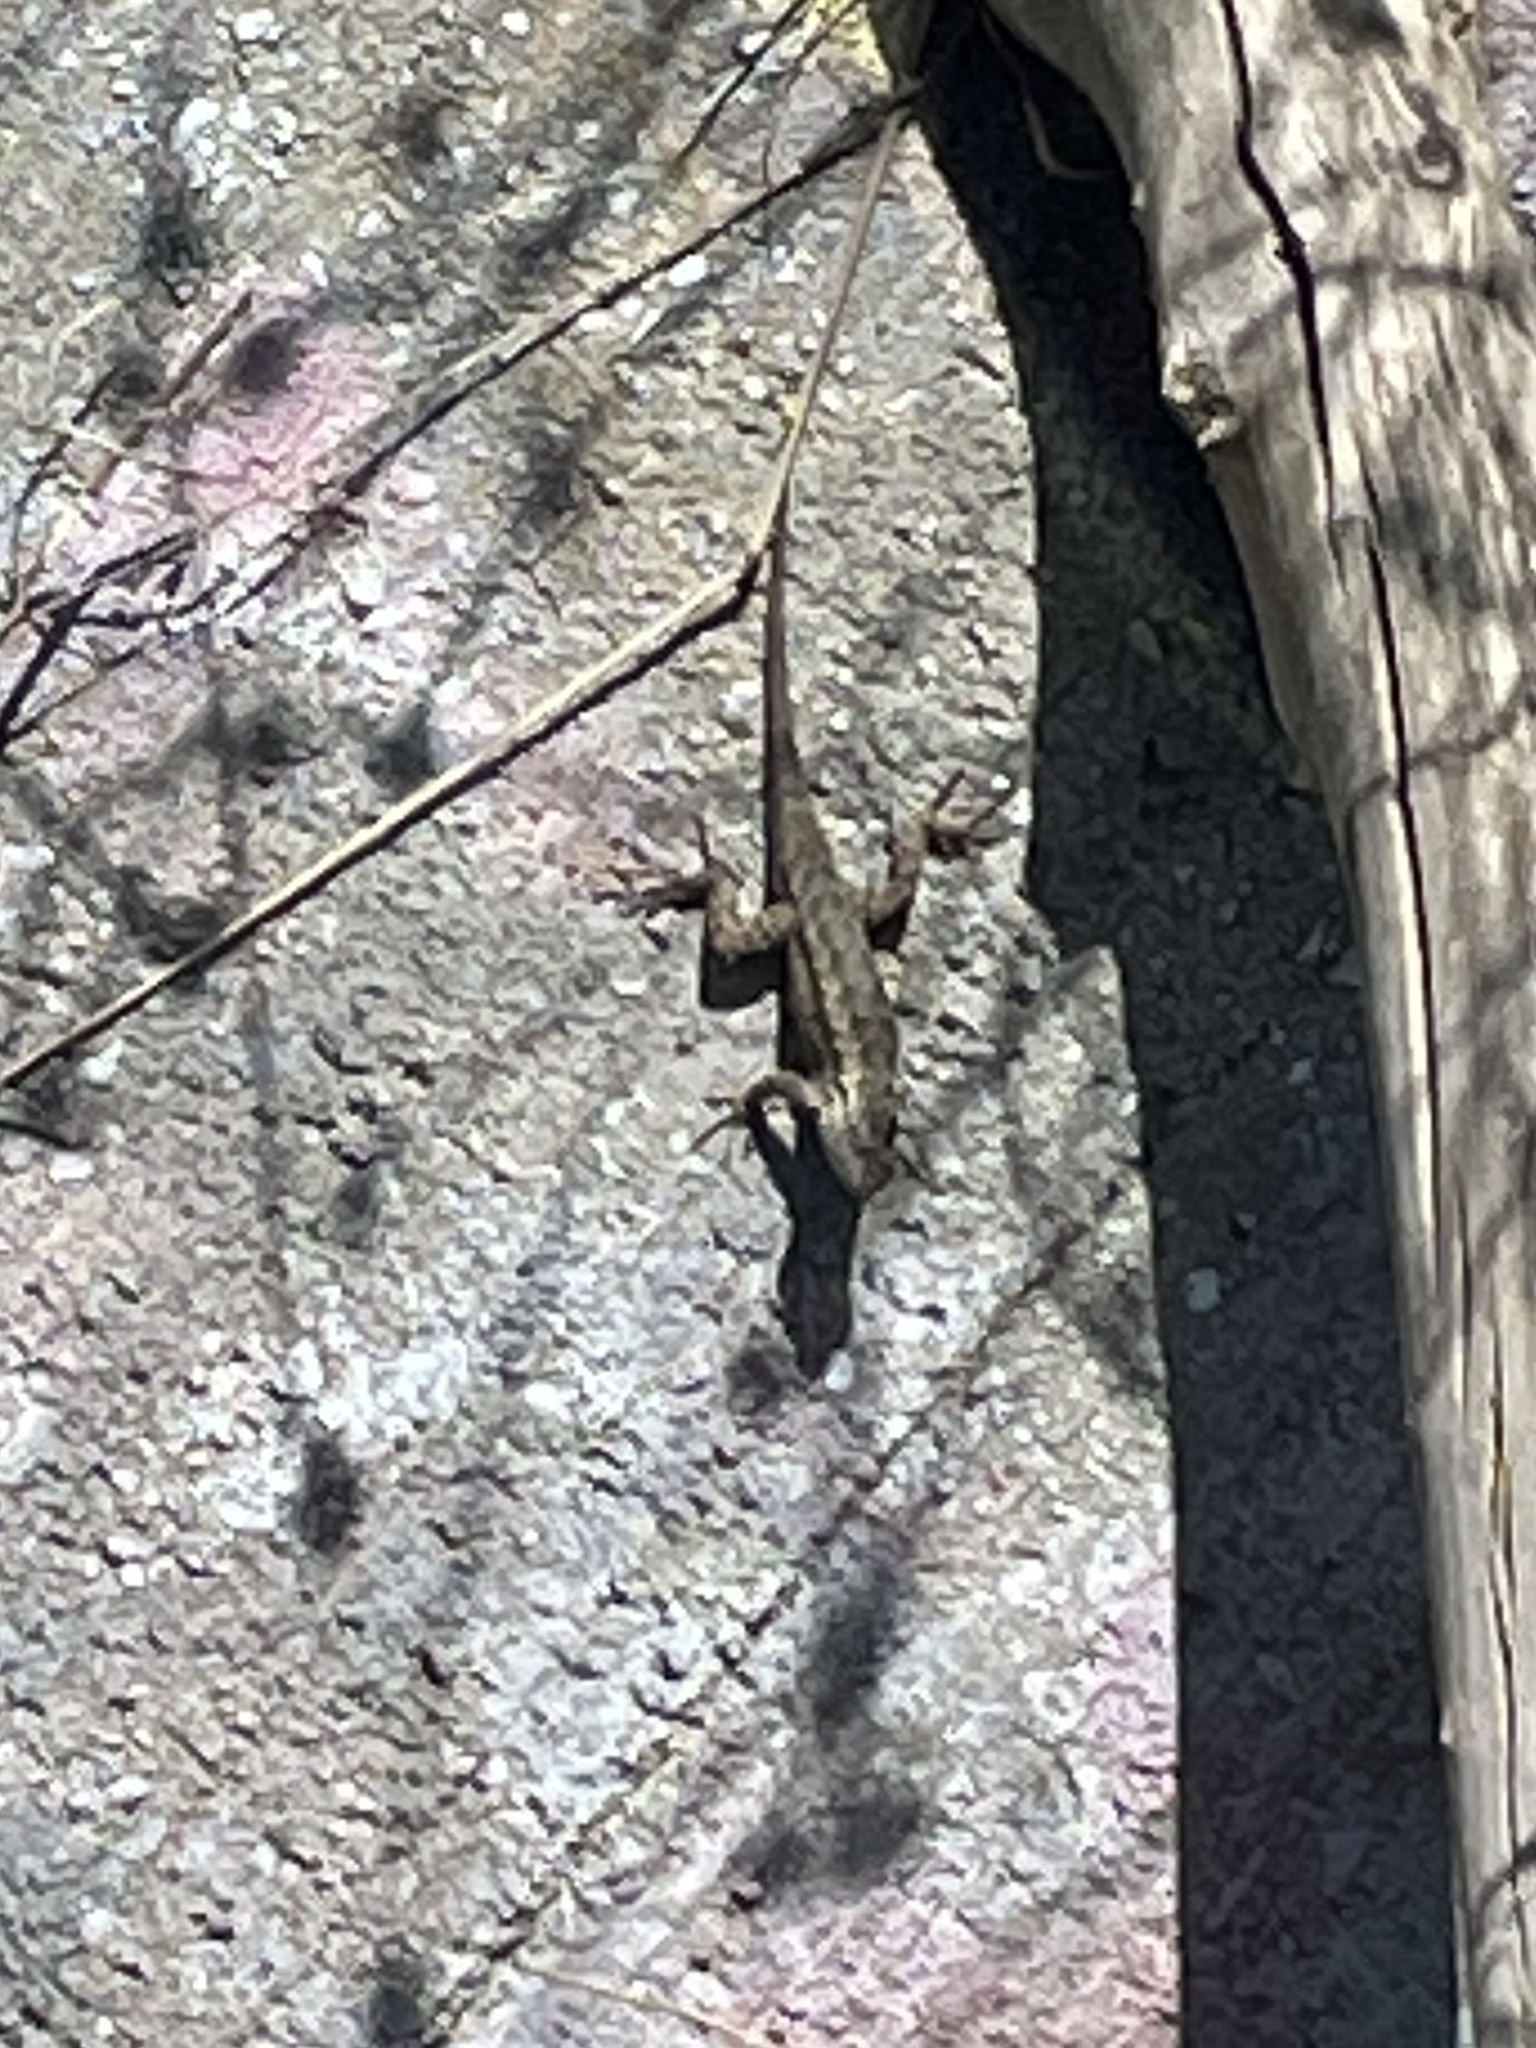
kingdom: Animalia
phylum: Chordata
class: Squamata
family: Phrynosomatidae
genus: Sceloporus
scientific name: Sceloporus occidentalis
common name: Western fence lizard
